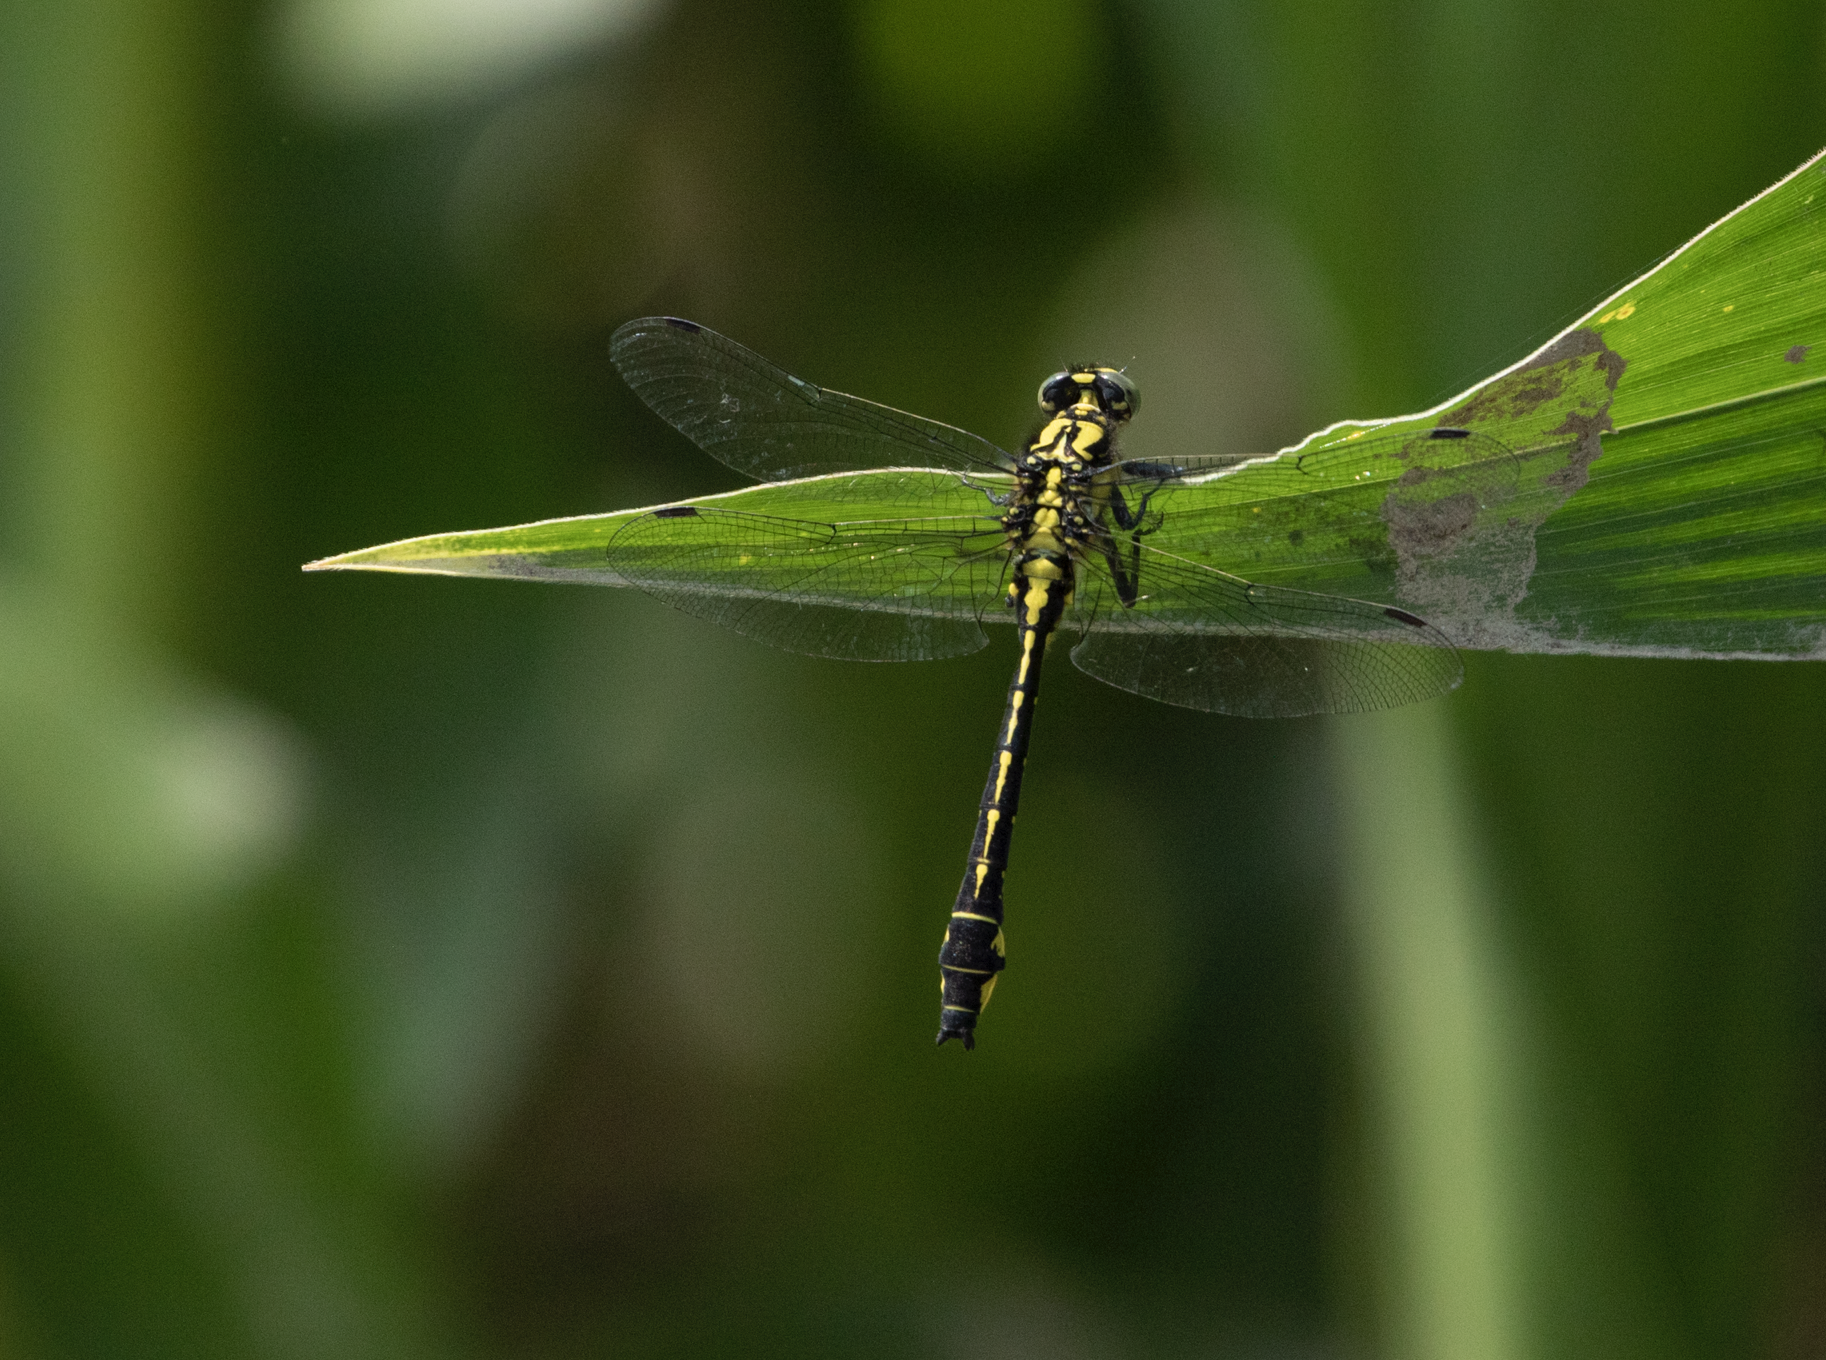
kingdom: Animalia
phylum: Arthropoda
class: Insecta
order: Odonata
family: Gomphidae
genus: Gomphus
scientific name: Gomphus vulgatissimus
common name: Club-tailed dragonfly
